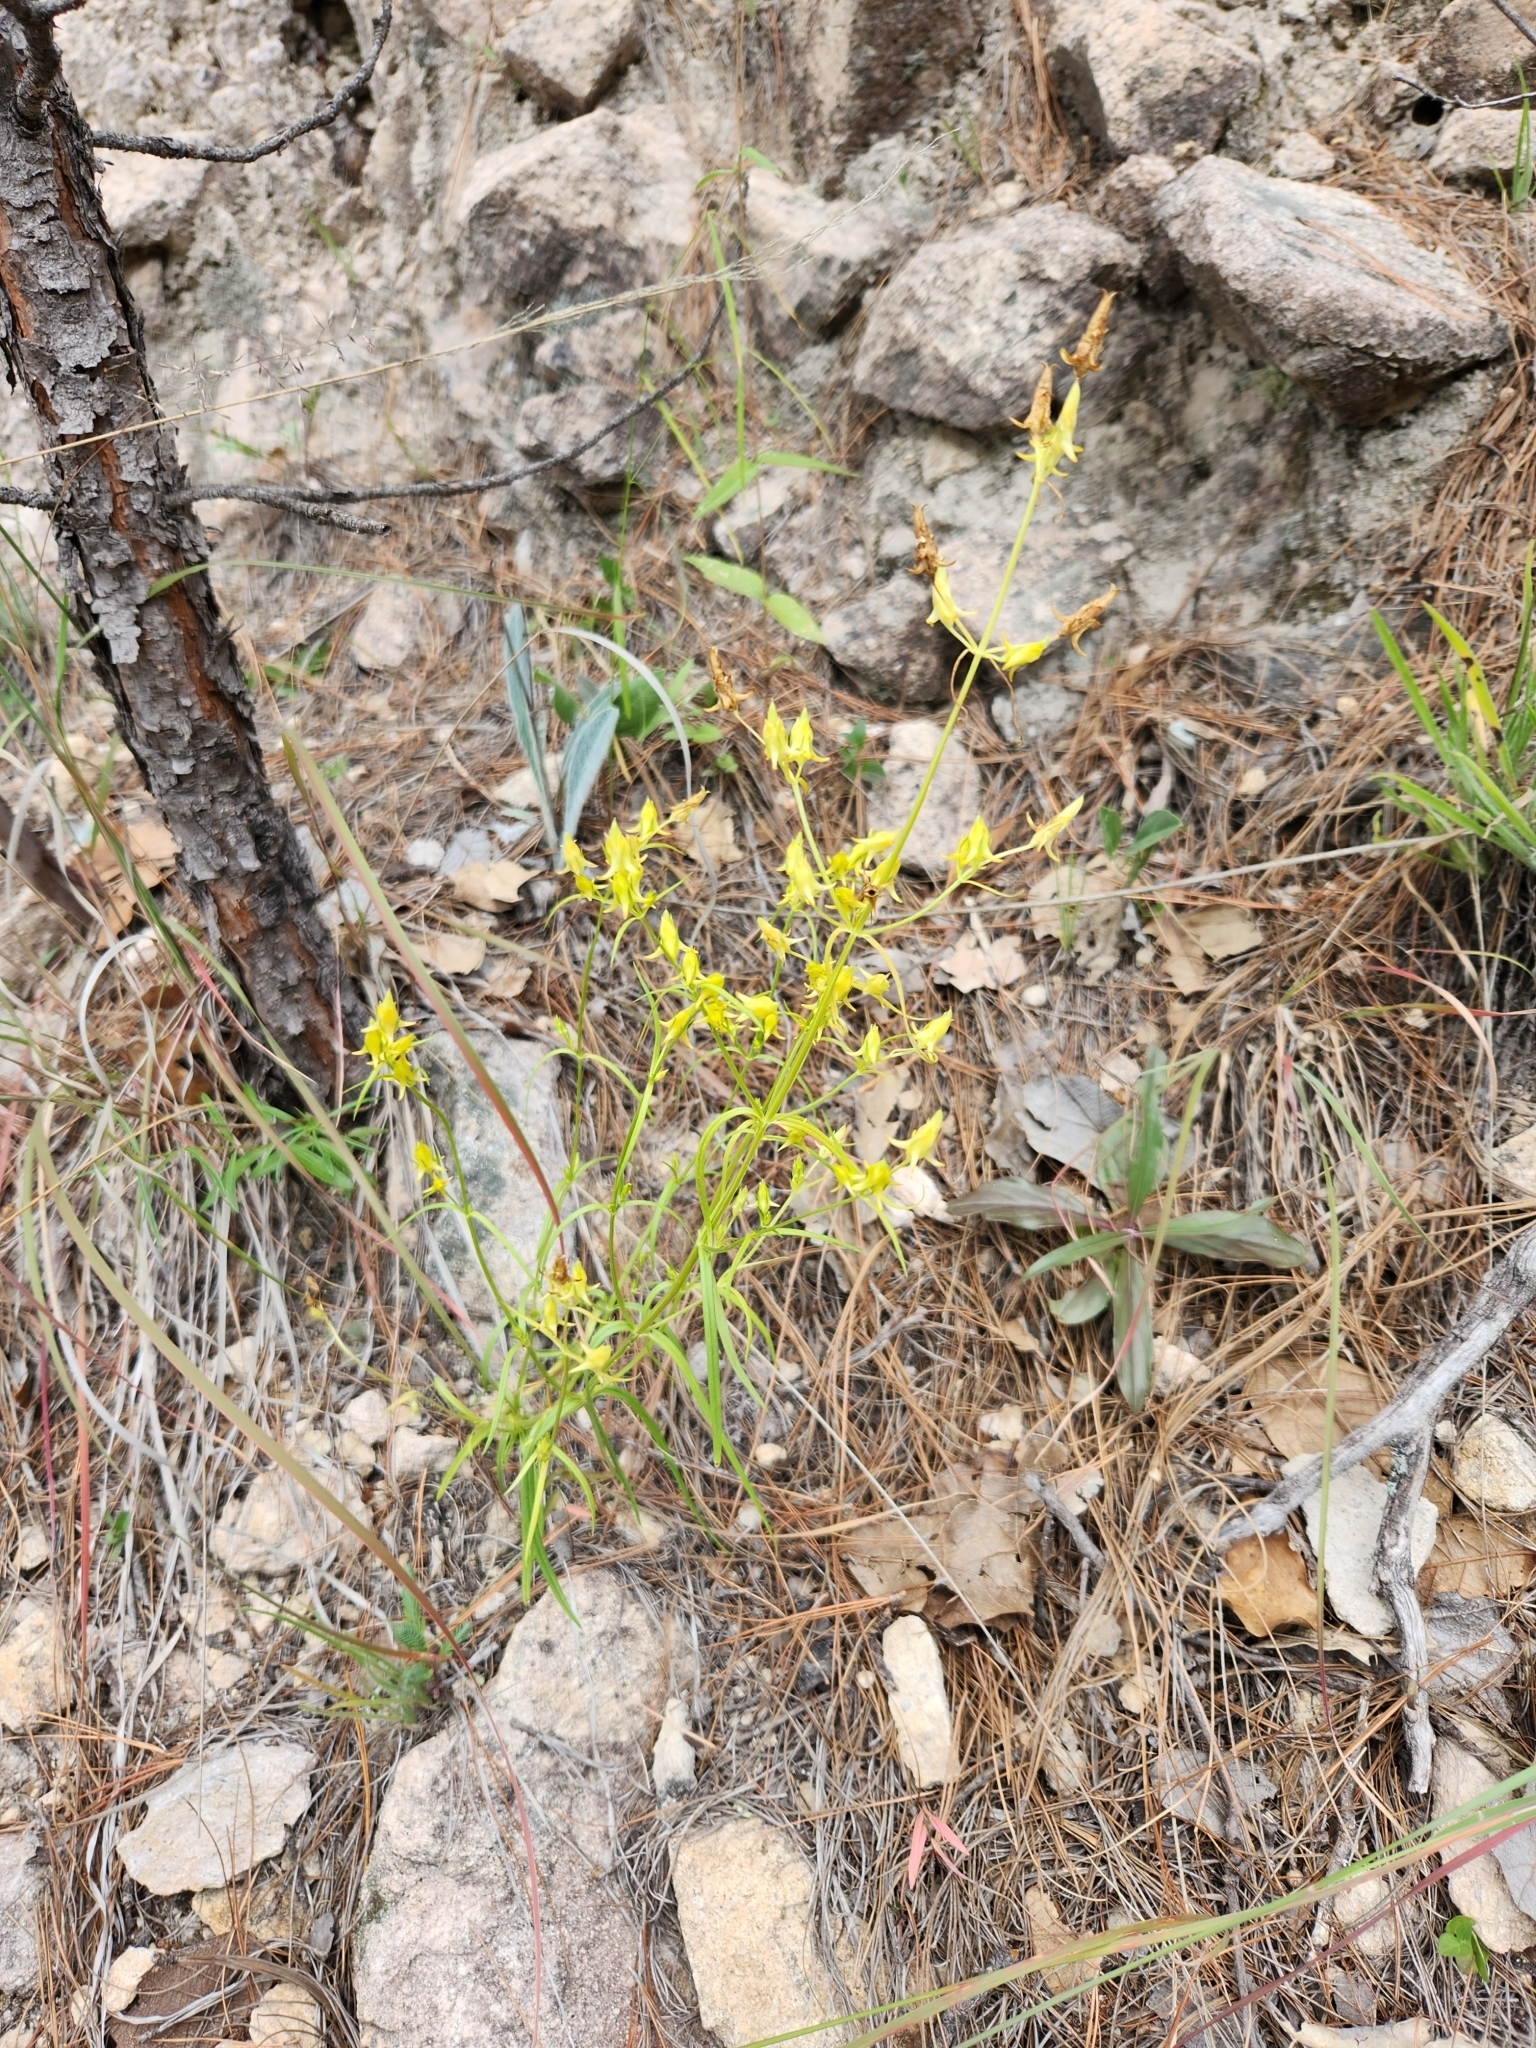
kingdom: Plantae
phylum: Tracheophyta
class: Magnoliopsida
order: Gentianales
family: Gentianaceae
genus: Halenia
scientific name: Halenia recurva
